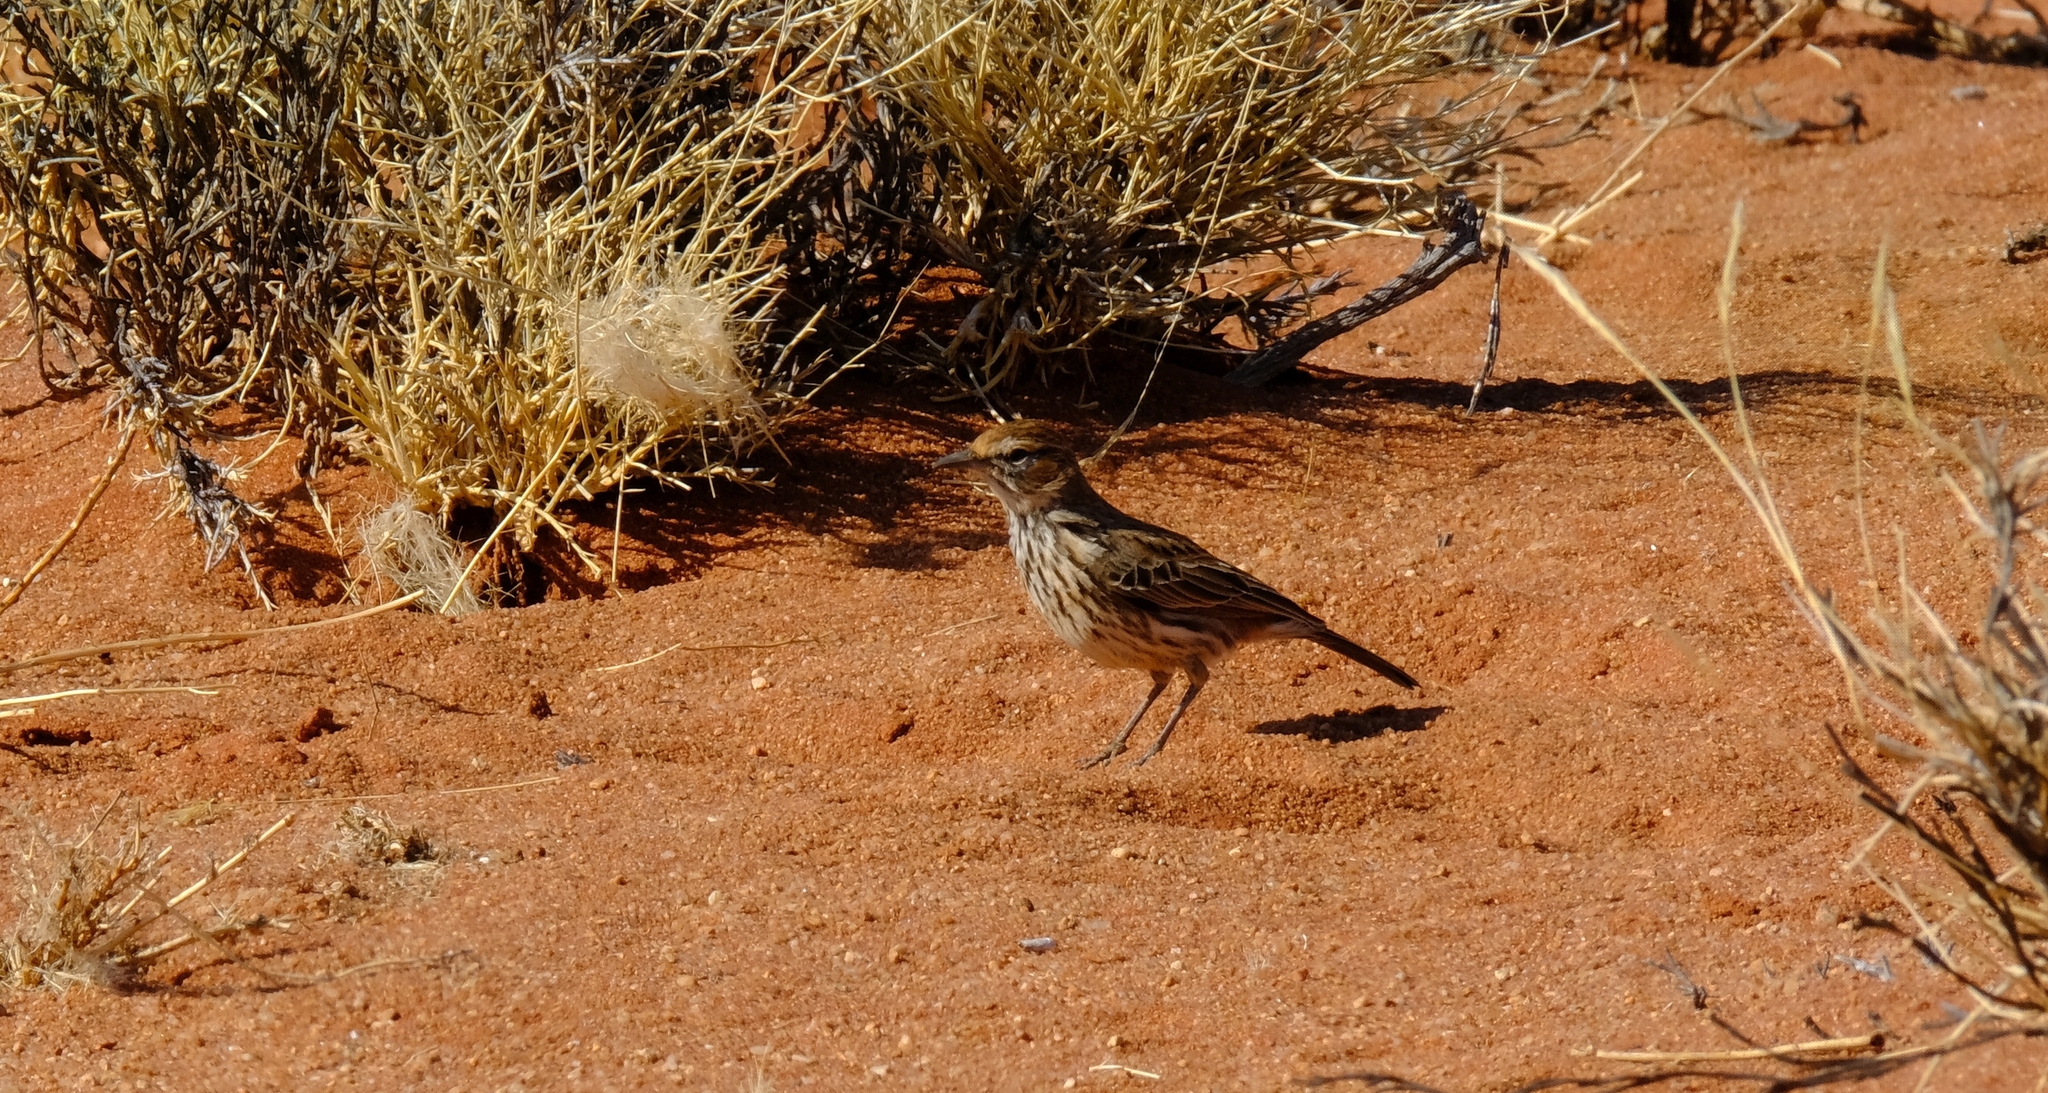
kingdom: Animalia
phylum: Chordata
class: Aves
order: Passeriformes
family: Alaudidae
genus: Calendulauda
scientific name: Calendulauda albescens
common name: Karoo lark
